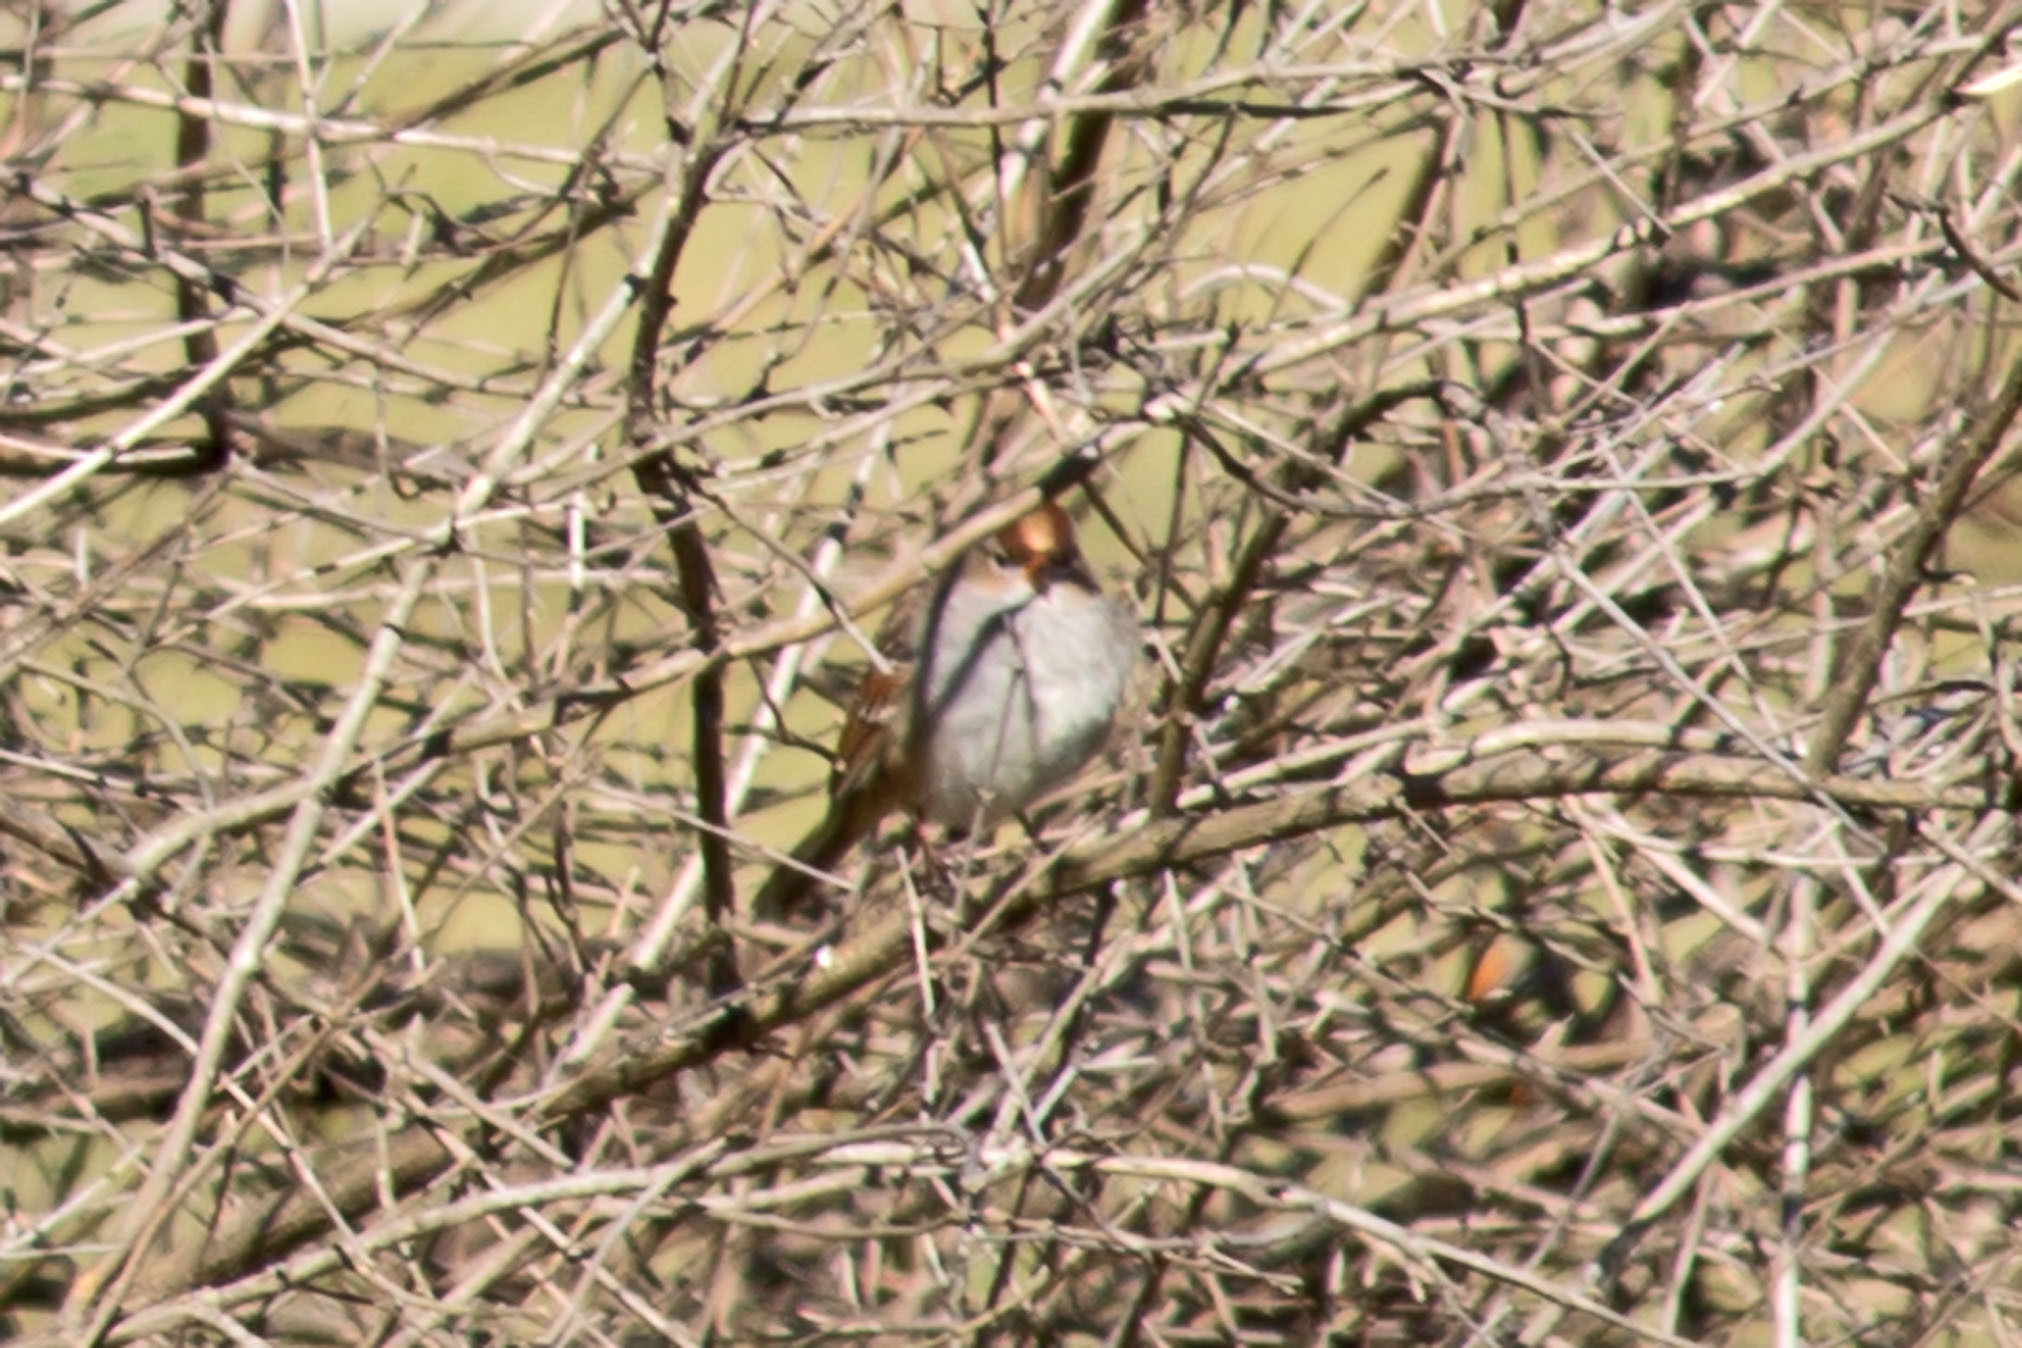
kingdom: Animalia
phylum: Chordata
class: Aves
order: Passeriformes
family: Passerellidae
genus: Zonotrichia
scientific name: Zonotrichia leucophrys
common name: White-crowned sparrow
